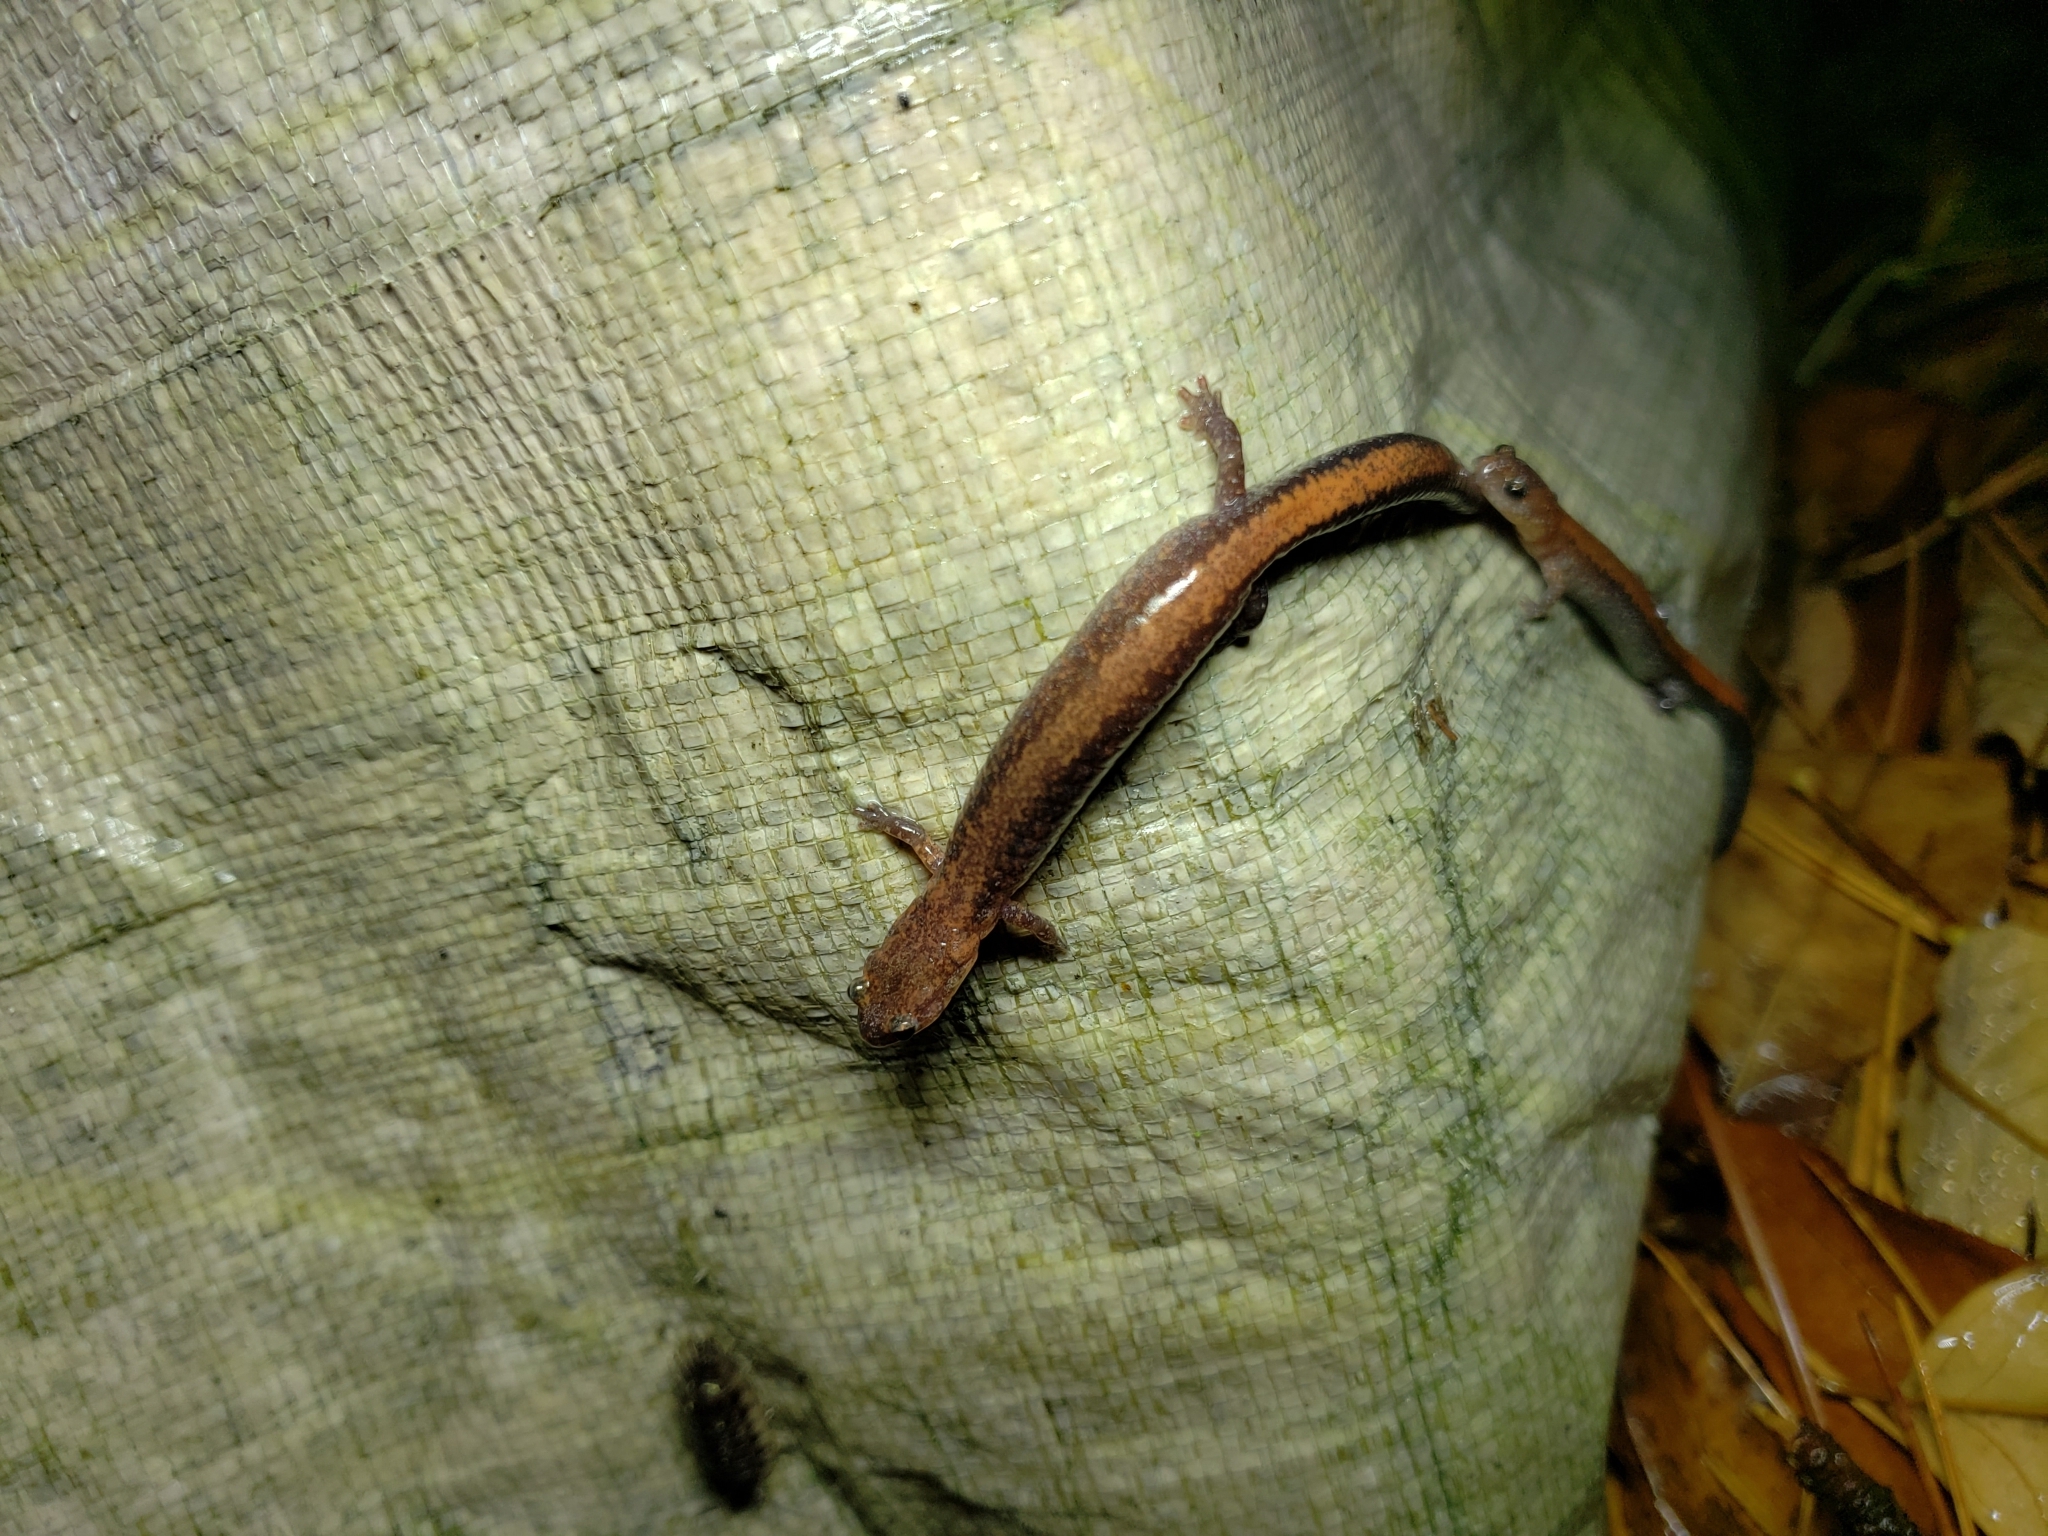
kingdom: Animalia
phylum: Chordata
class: Amphibia
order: Caudata
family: Plethodontidae
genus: Plethodon
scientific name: Plethodon cinereus
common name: Redback salamander
